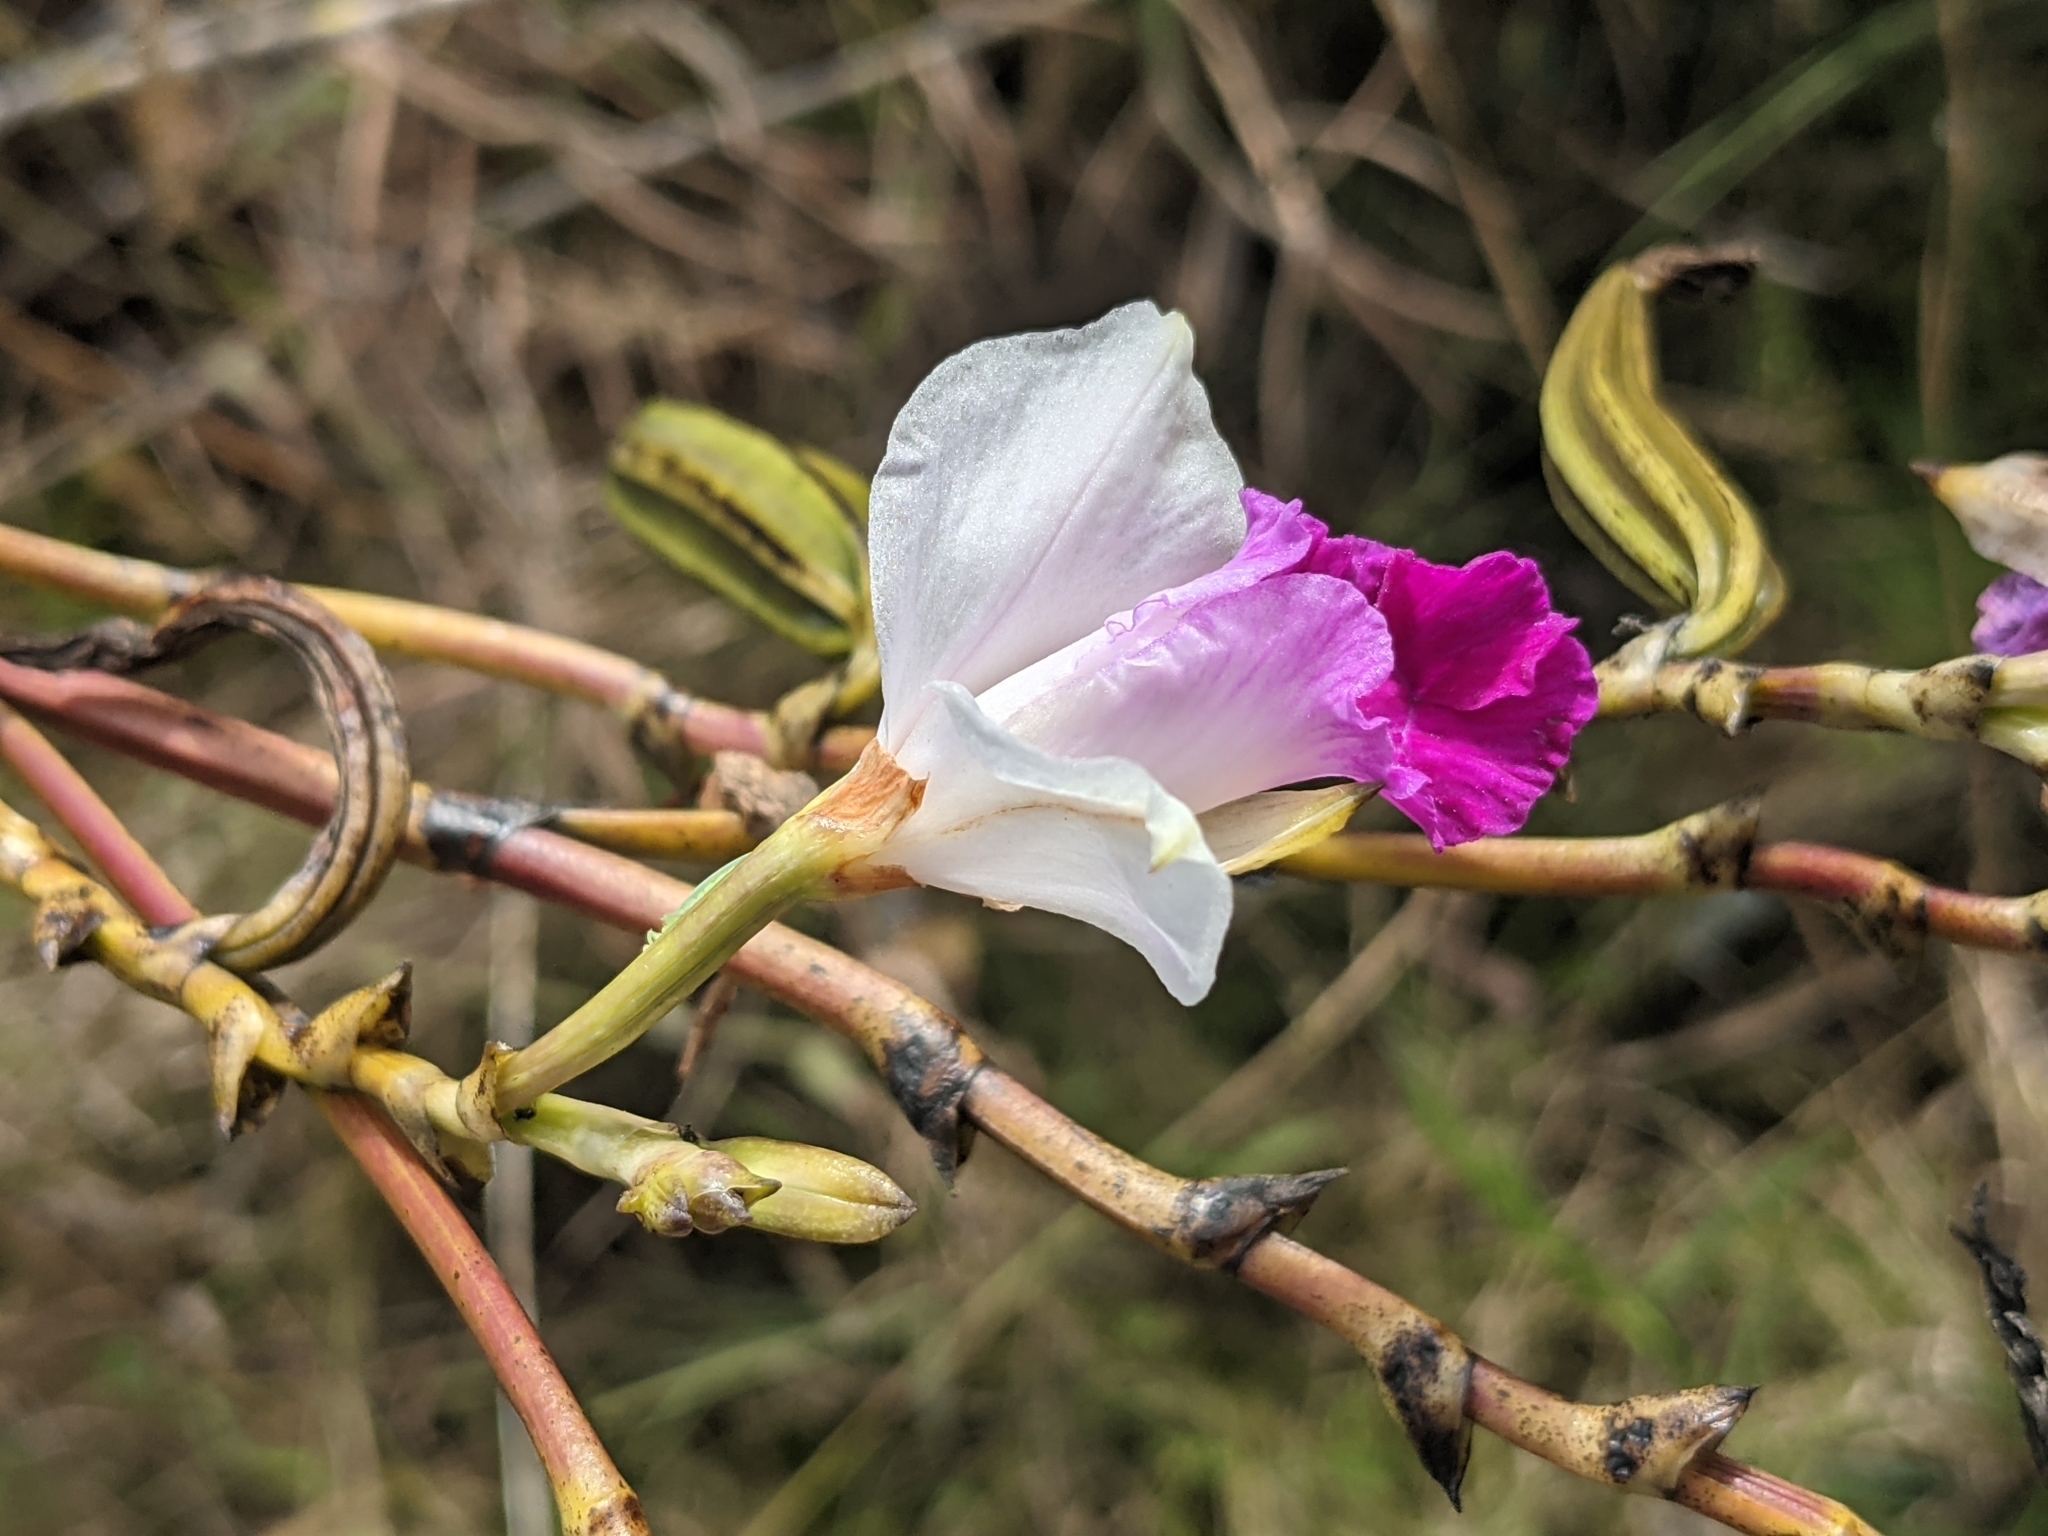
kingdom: Plantae
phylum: Tracheophyta
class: Liliopsida
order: Asparagales
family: Orchidaceae
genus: Arundina
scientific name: Arundina graminifolia
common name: Bamboo orchid
